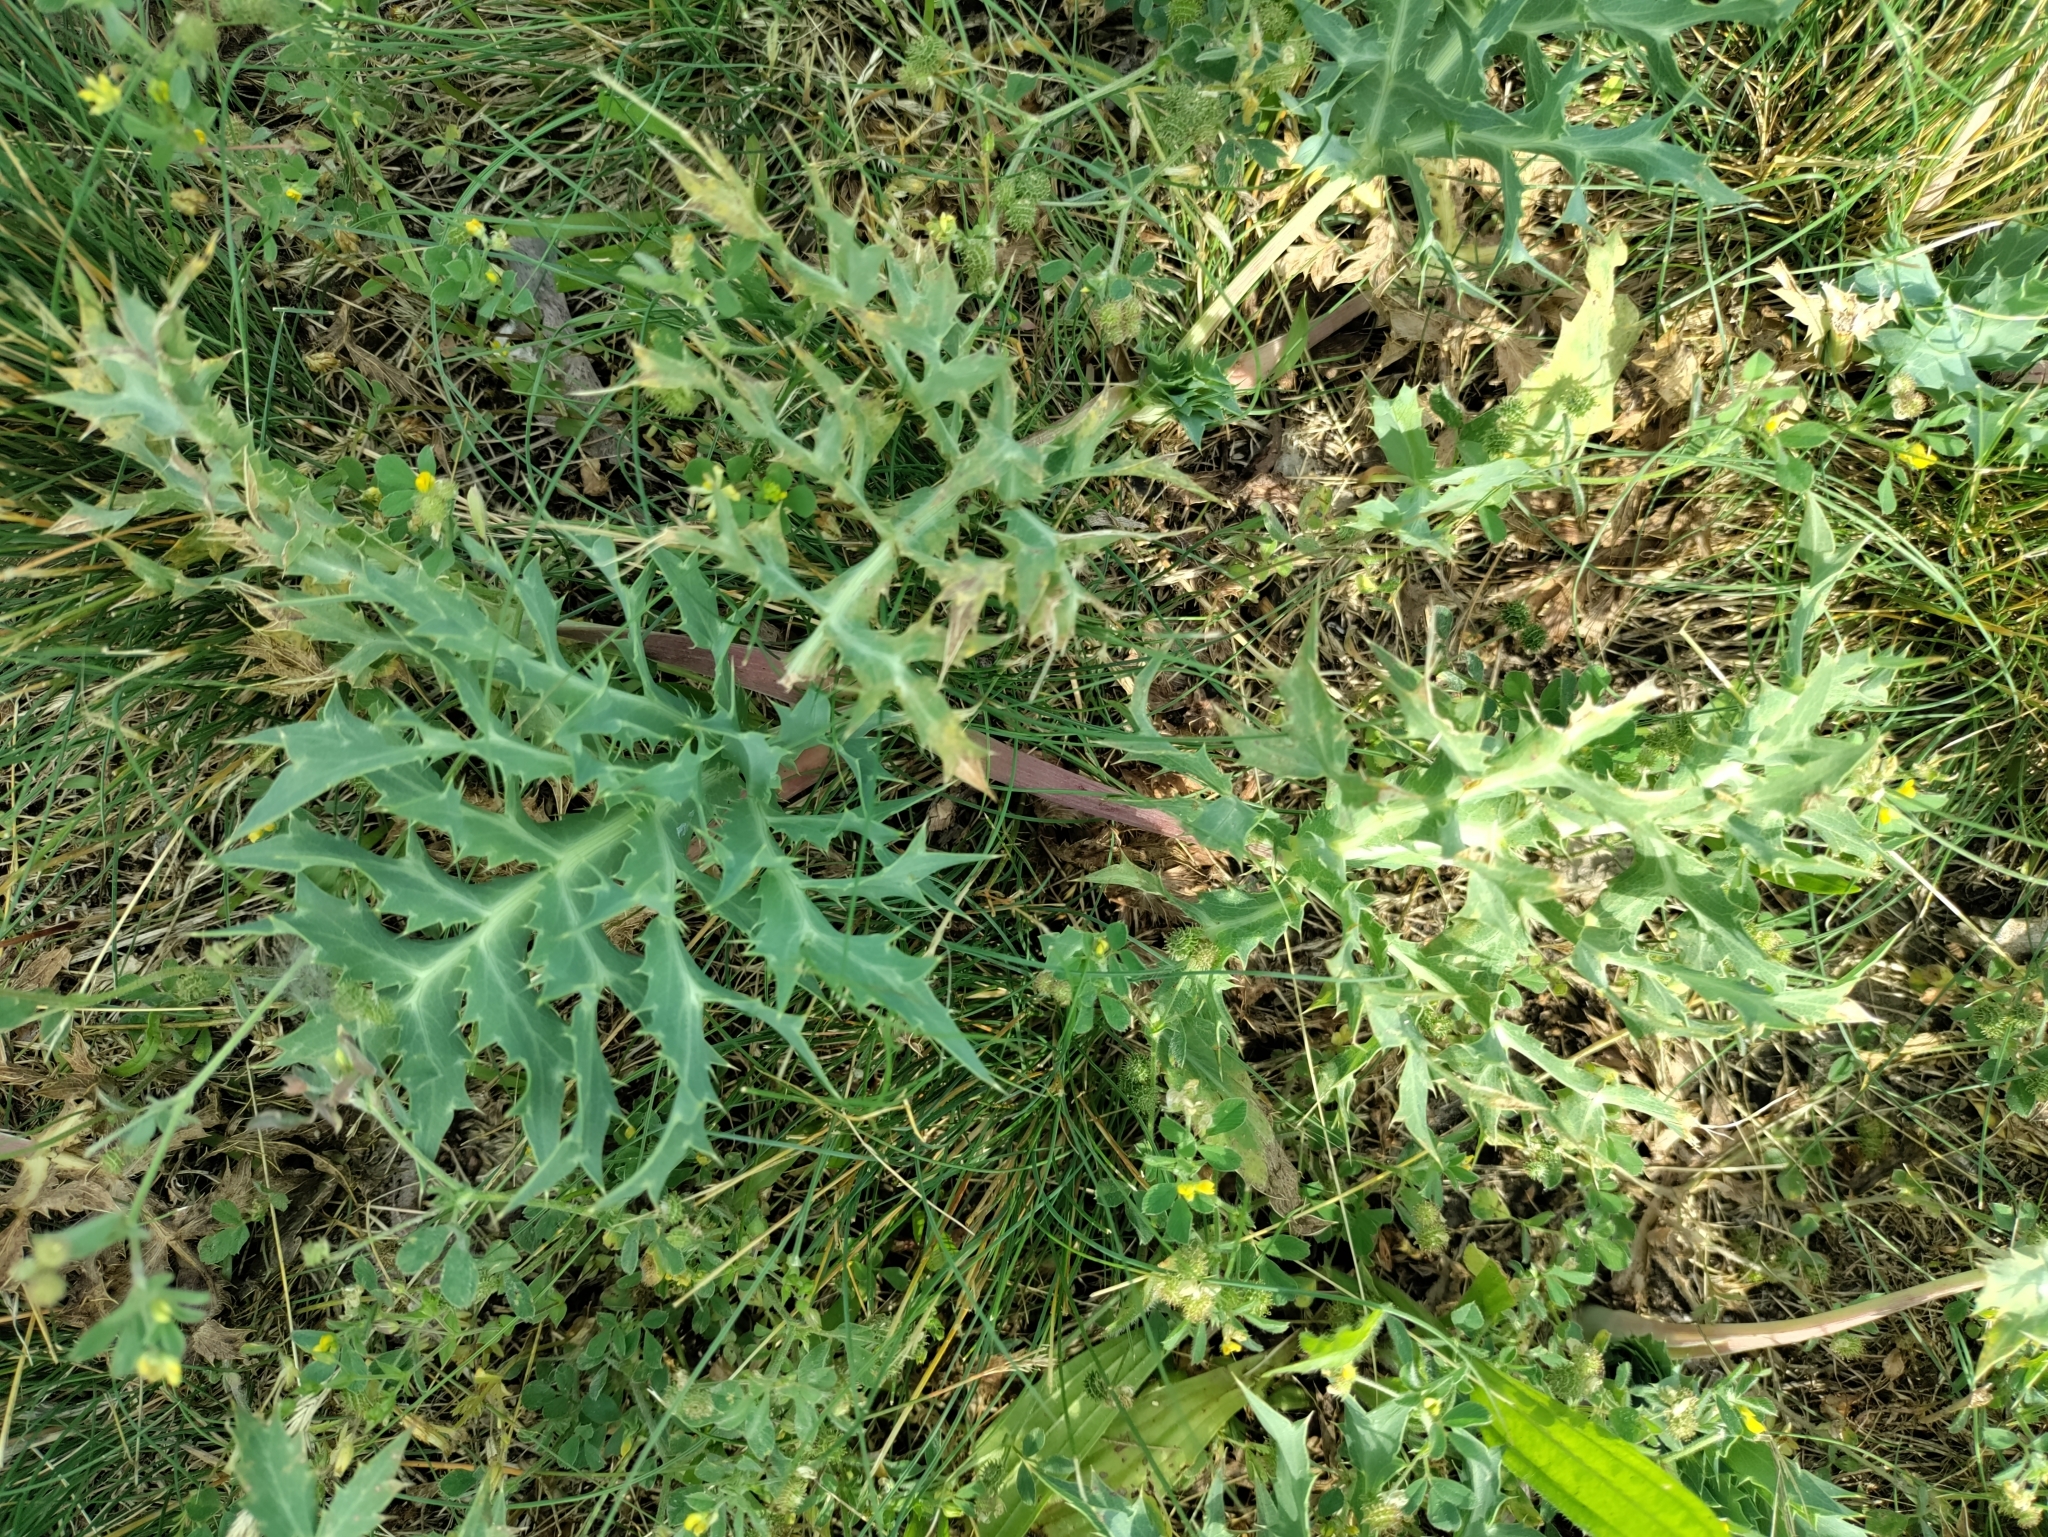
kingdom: Plantae
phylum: Tracheophyta
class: Magnoliopsida
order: Apiales
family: Apiaceae
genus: Eryngium
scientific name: Eryngium campestre
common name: Field eryngo
